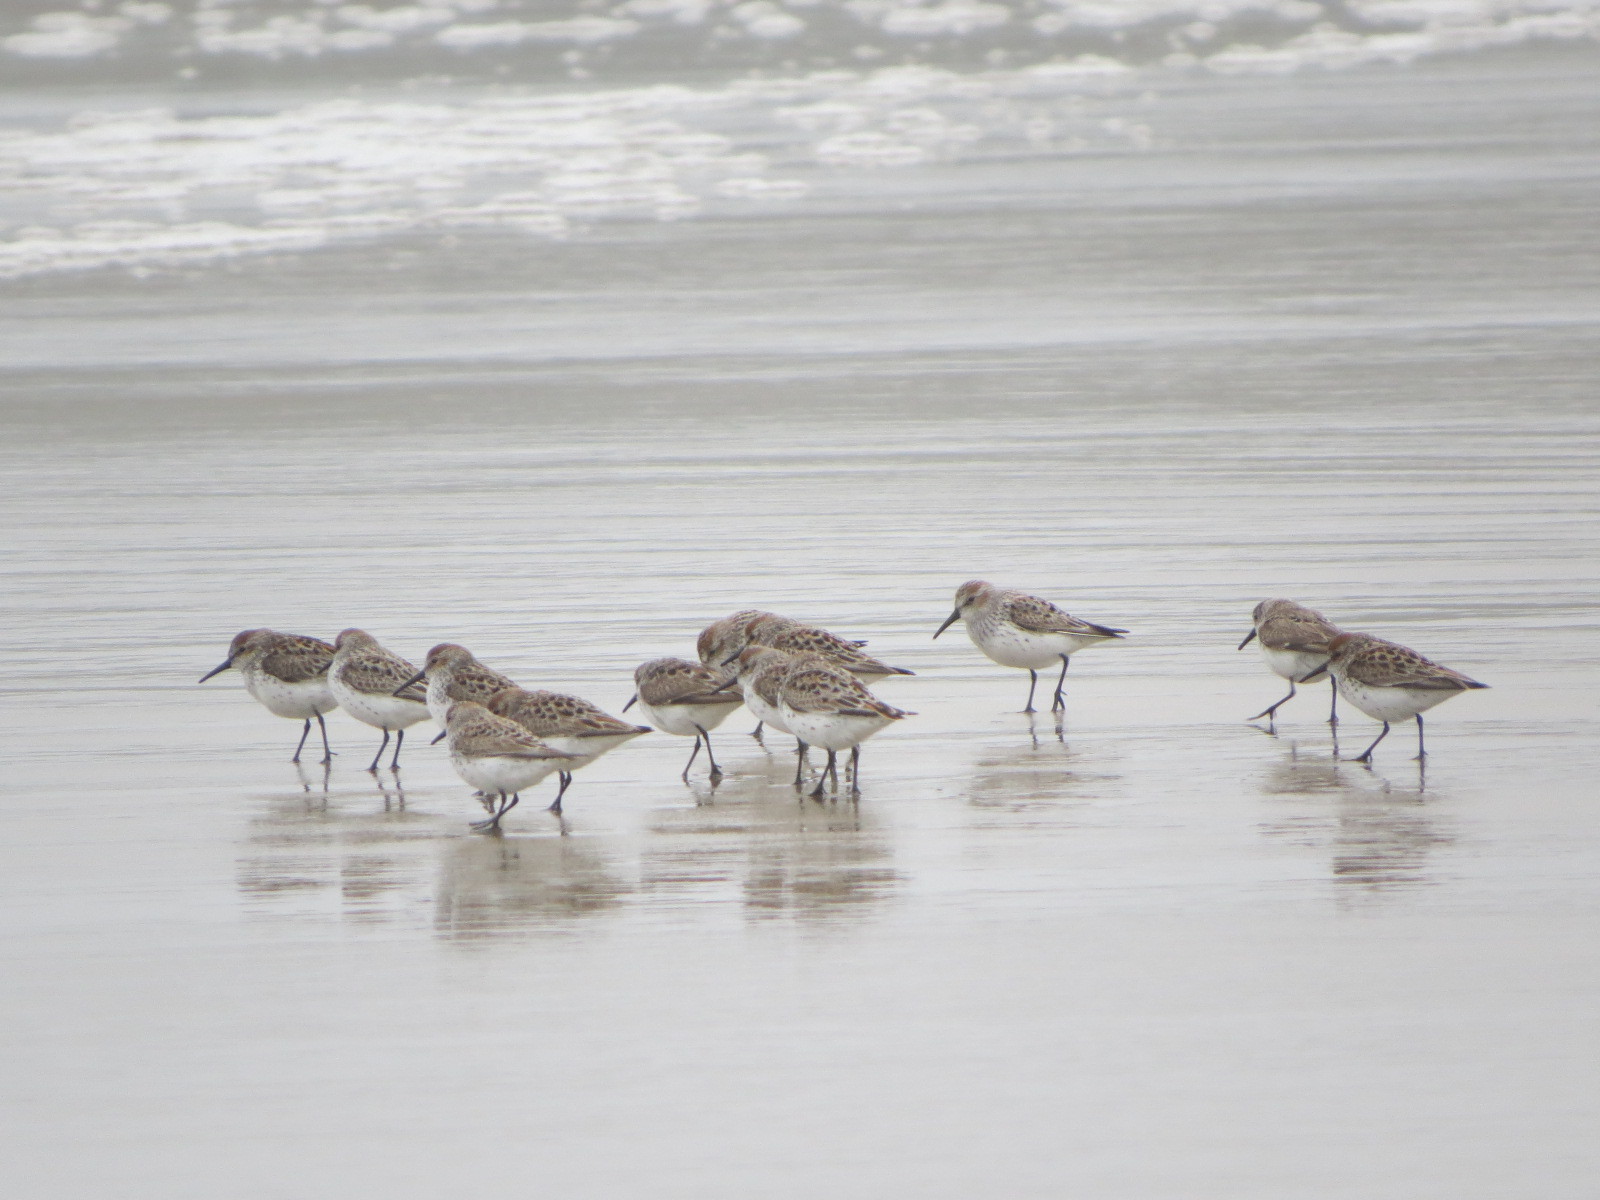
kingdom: Animalia
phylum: Chordata
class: Aves
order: Charadriiformes
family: Scolopacidae
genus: Calidris
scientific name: Calidris mauri
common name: Western sandpiper
